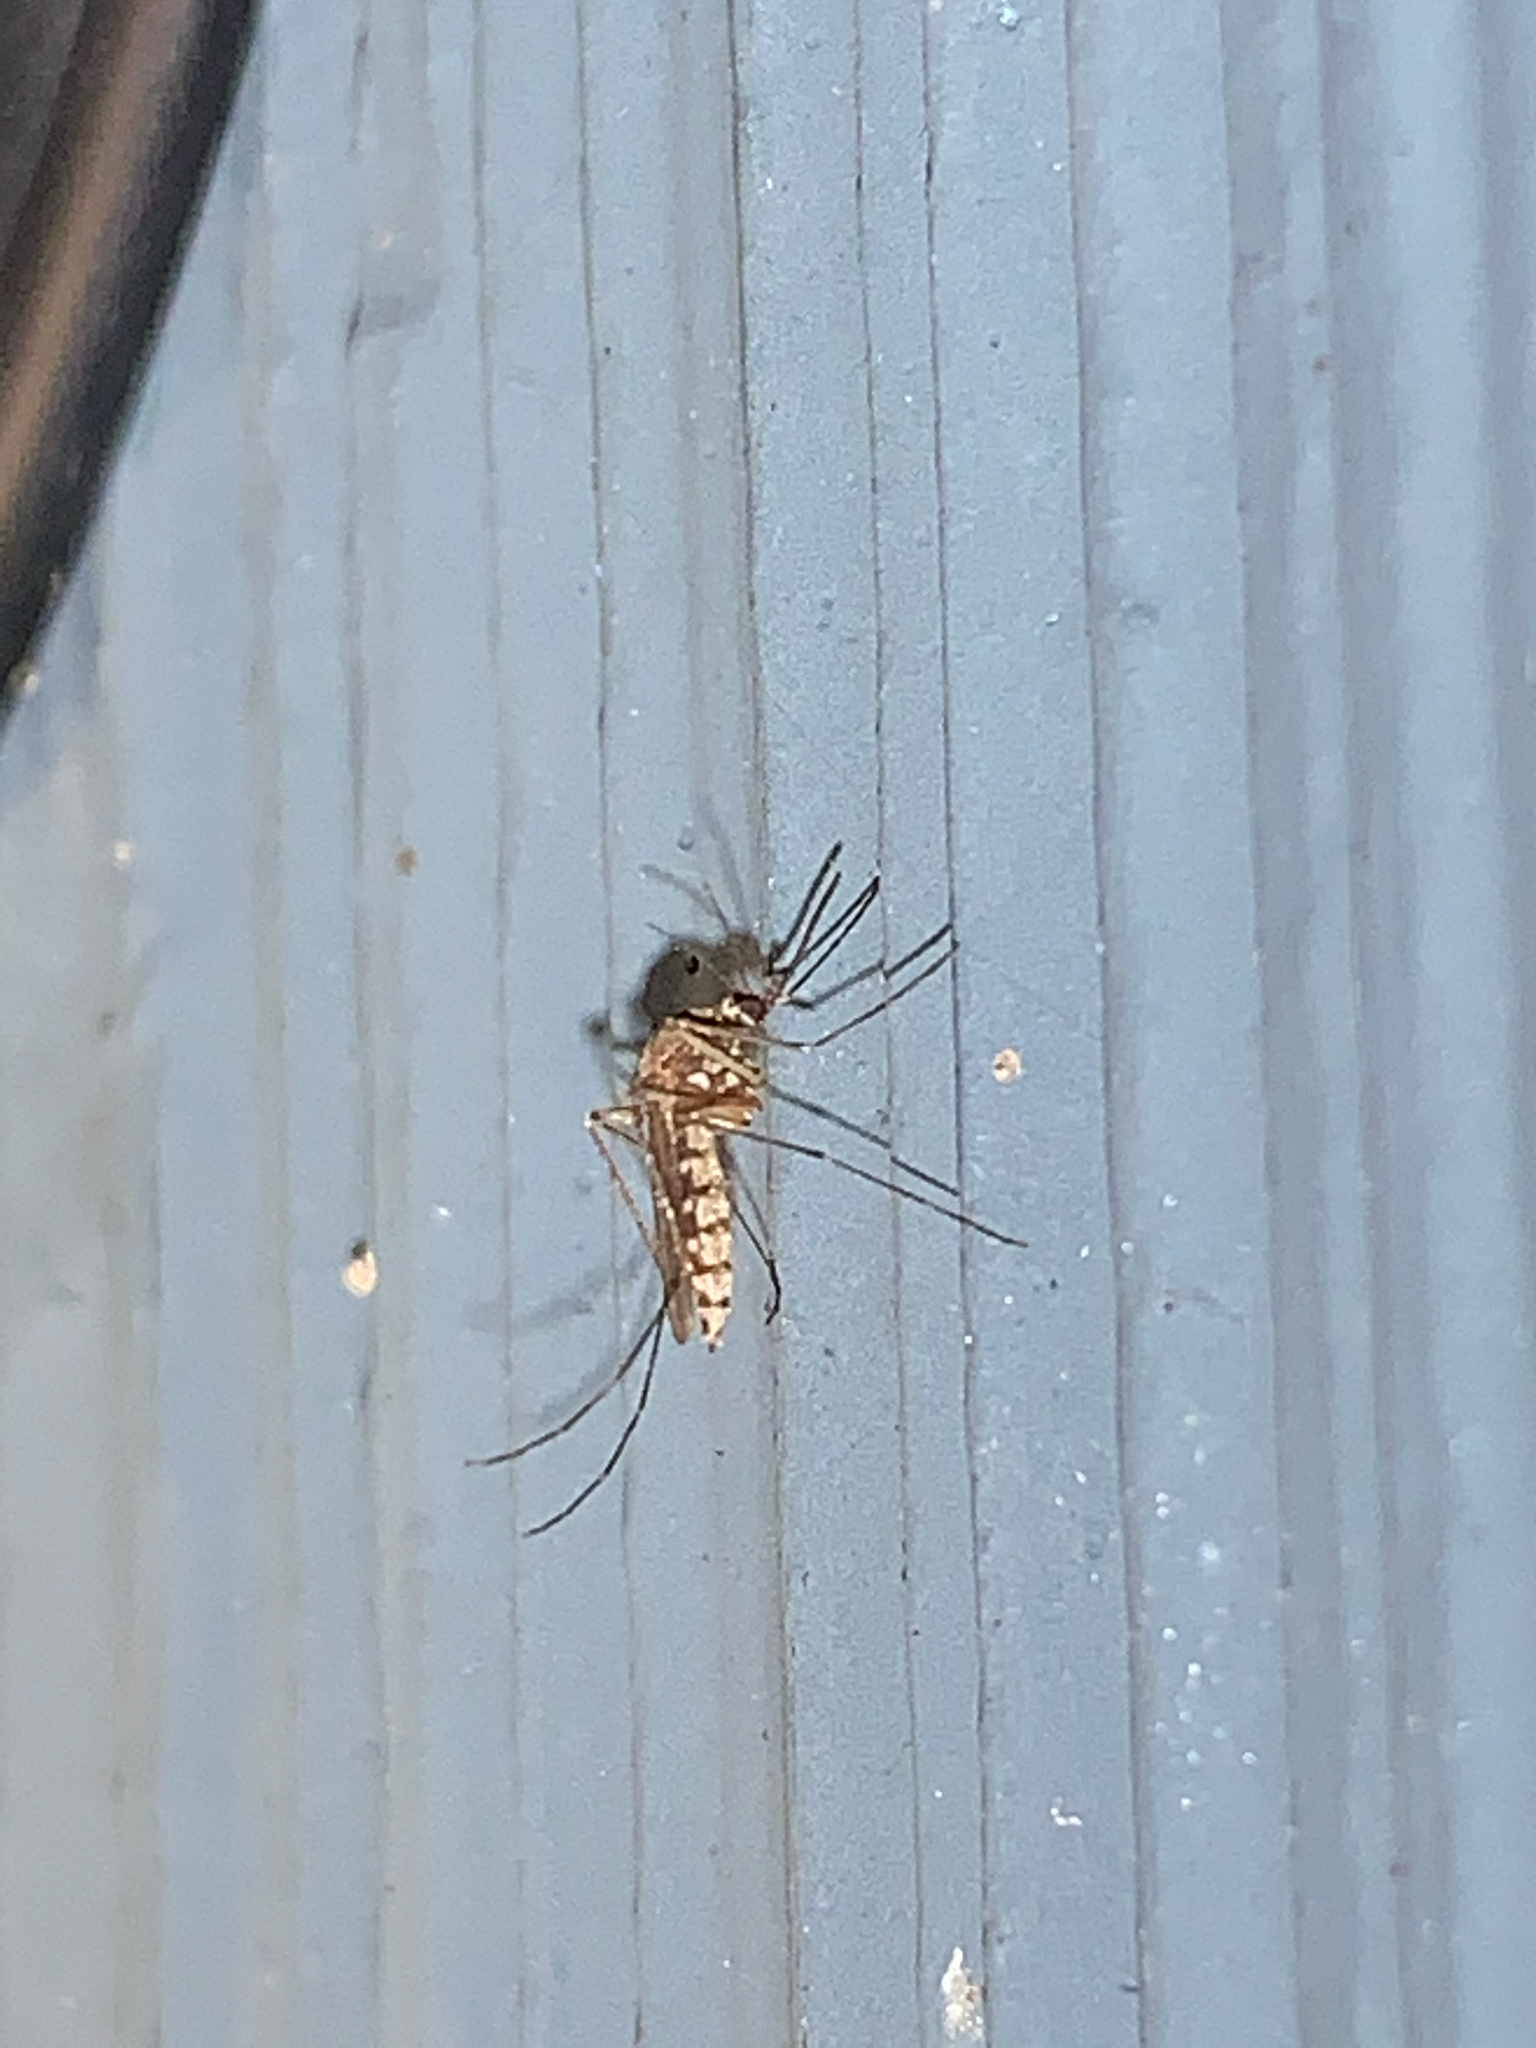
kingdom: Animalia
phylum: Arthropoda
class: Insecta
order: Diptera
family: Culicidae
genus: Aedes
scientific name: Aedes vexans
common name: Inland floodwater mosquito
